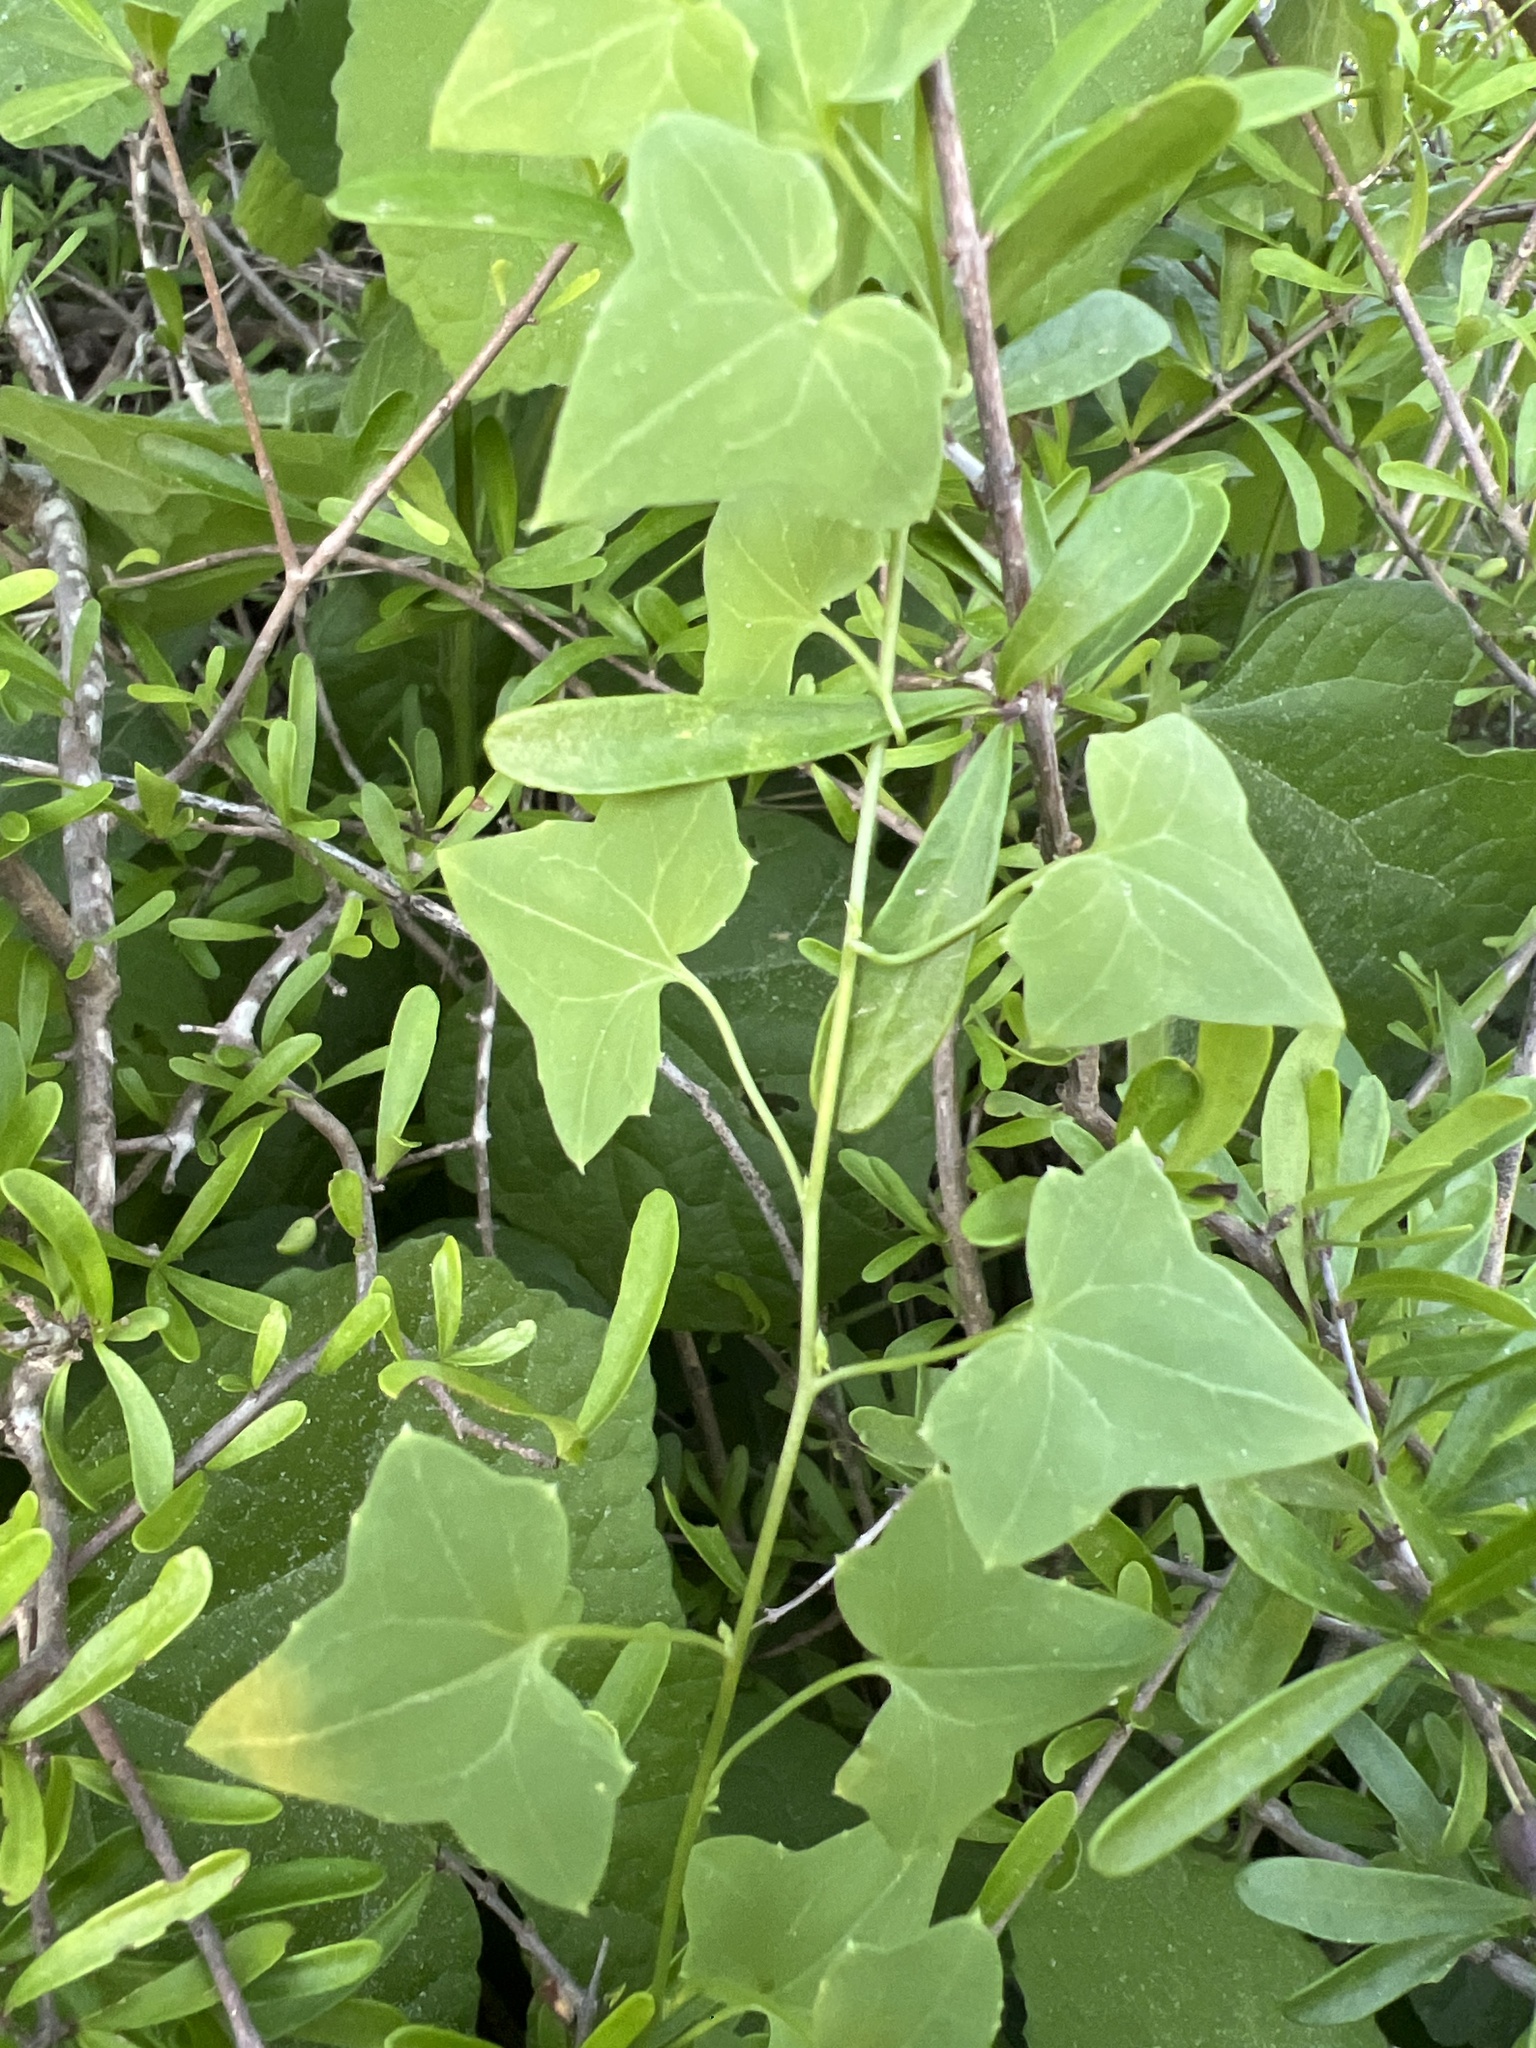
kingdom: Plantae
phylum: Tracheophyta
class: Magnoliopsida
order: Lamiales
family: Plantaginaceae
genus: Maurandella
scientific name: Maurandella antirrhiniflora
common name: Violet twining-snapdragon
